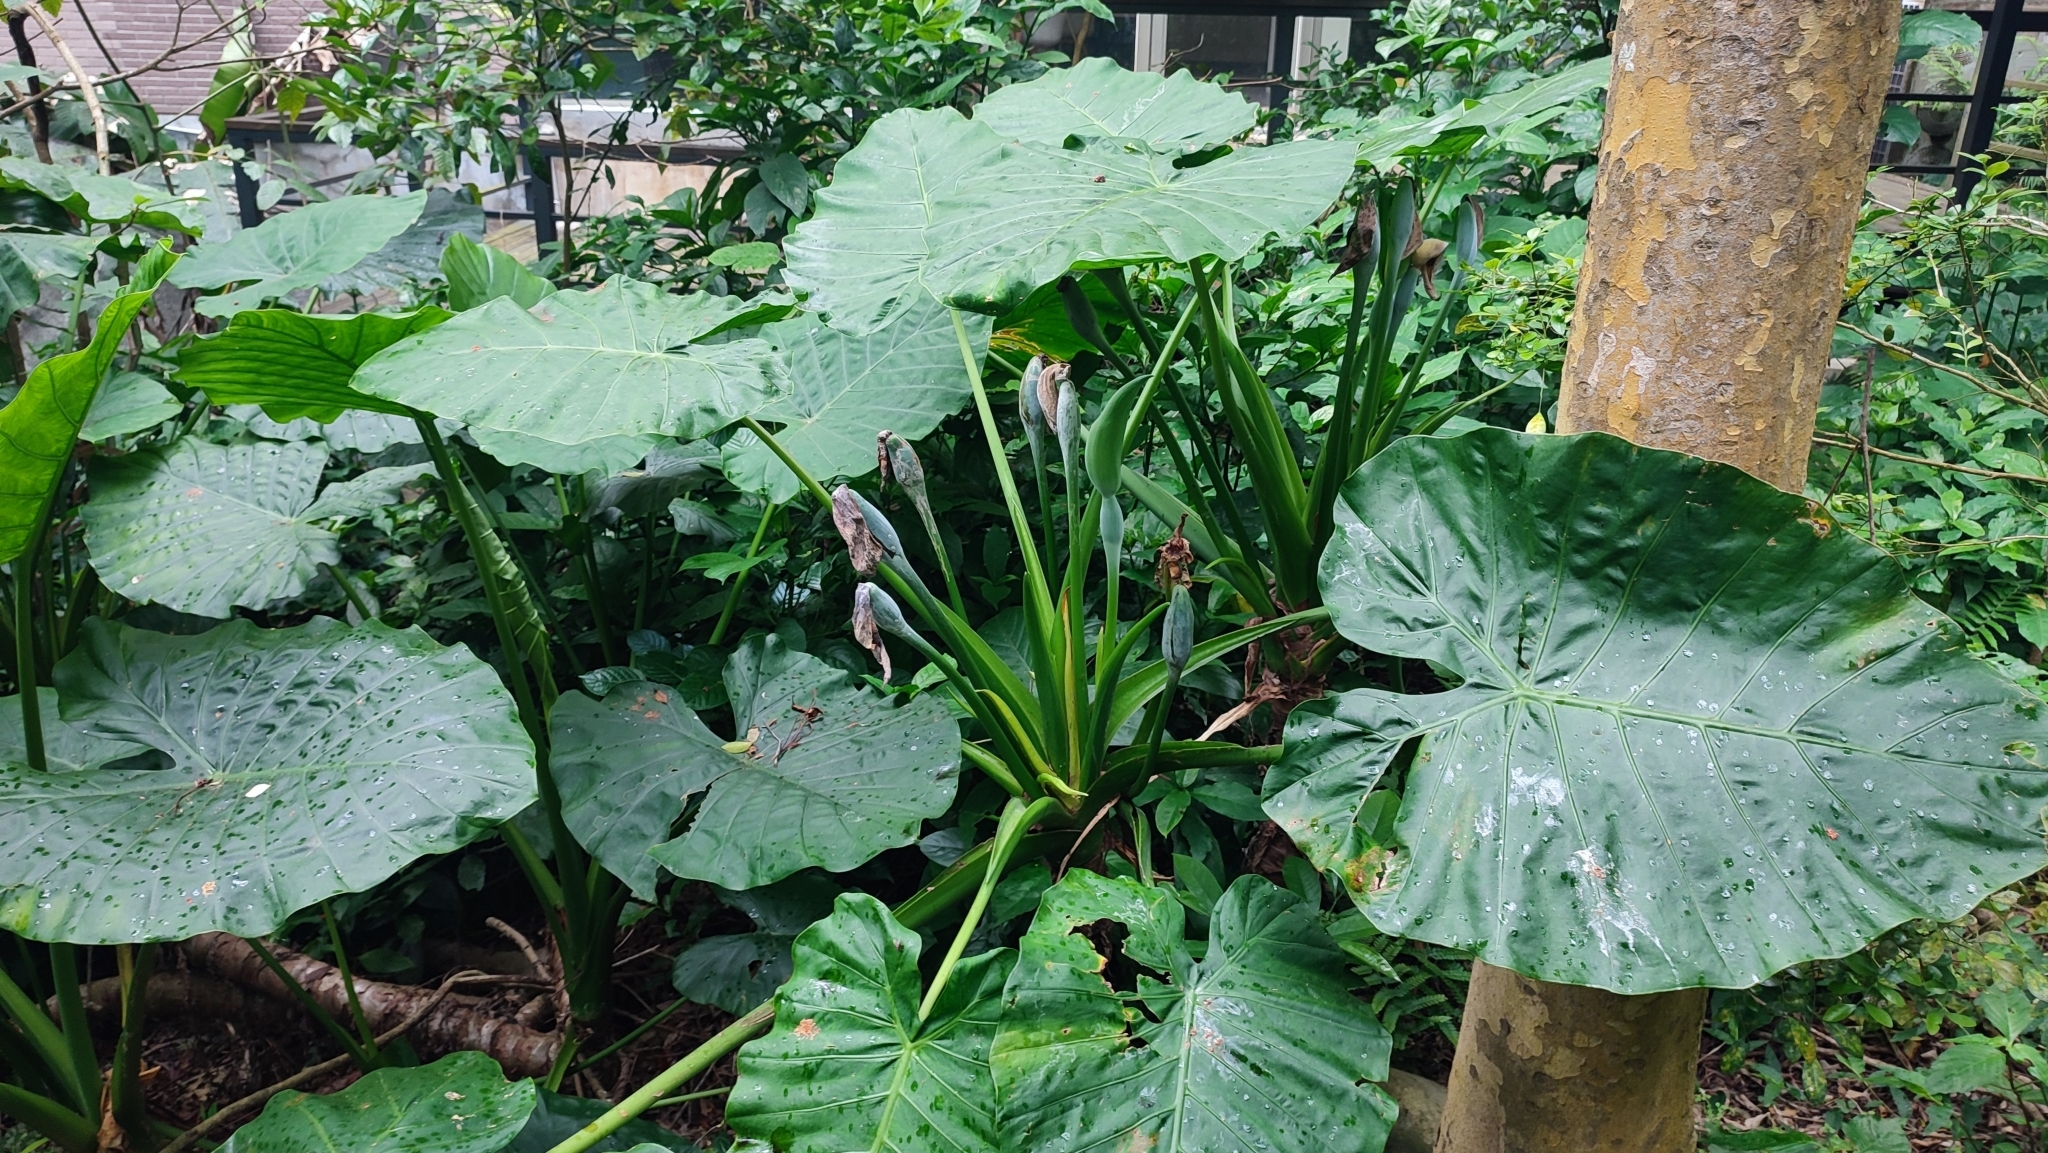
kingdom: Plantae
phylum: Tracheophyta
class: Liliopsida
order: Alismatales
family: Araceae
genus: Alocasia
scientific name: Alocasia odora
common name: Asian taro
